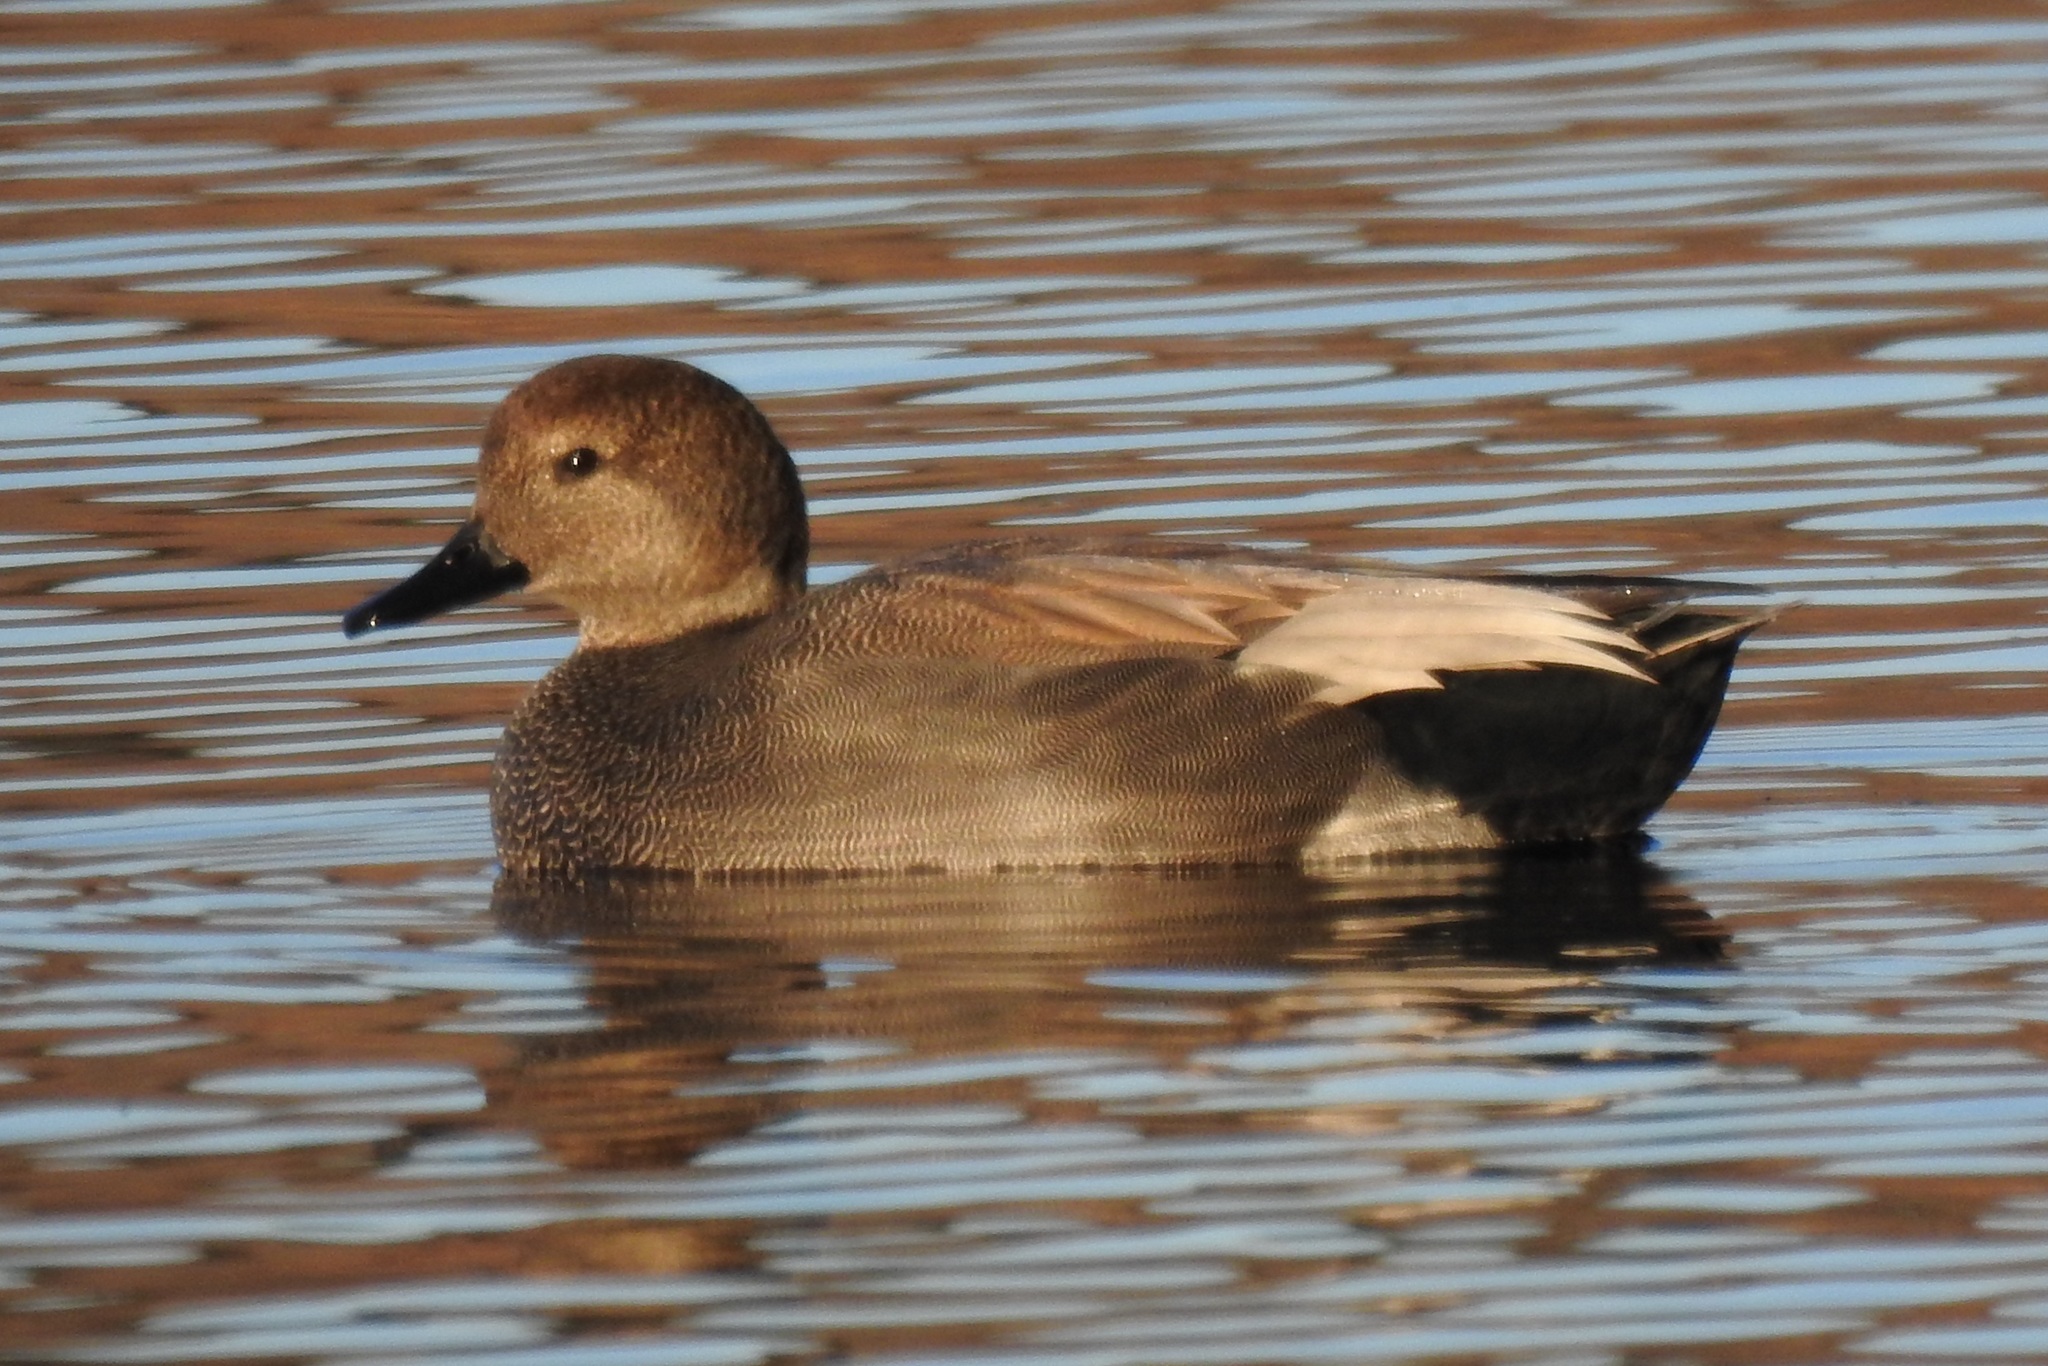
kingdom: Animalia
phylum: Chordata
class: Aves
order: Anseriformes
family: Anatidae
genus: Mareca
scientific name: Mareca strepera
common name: Gadwall
